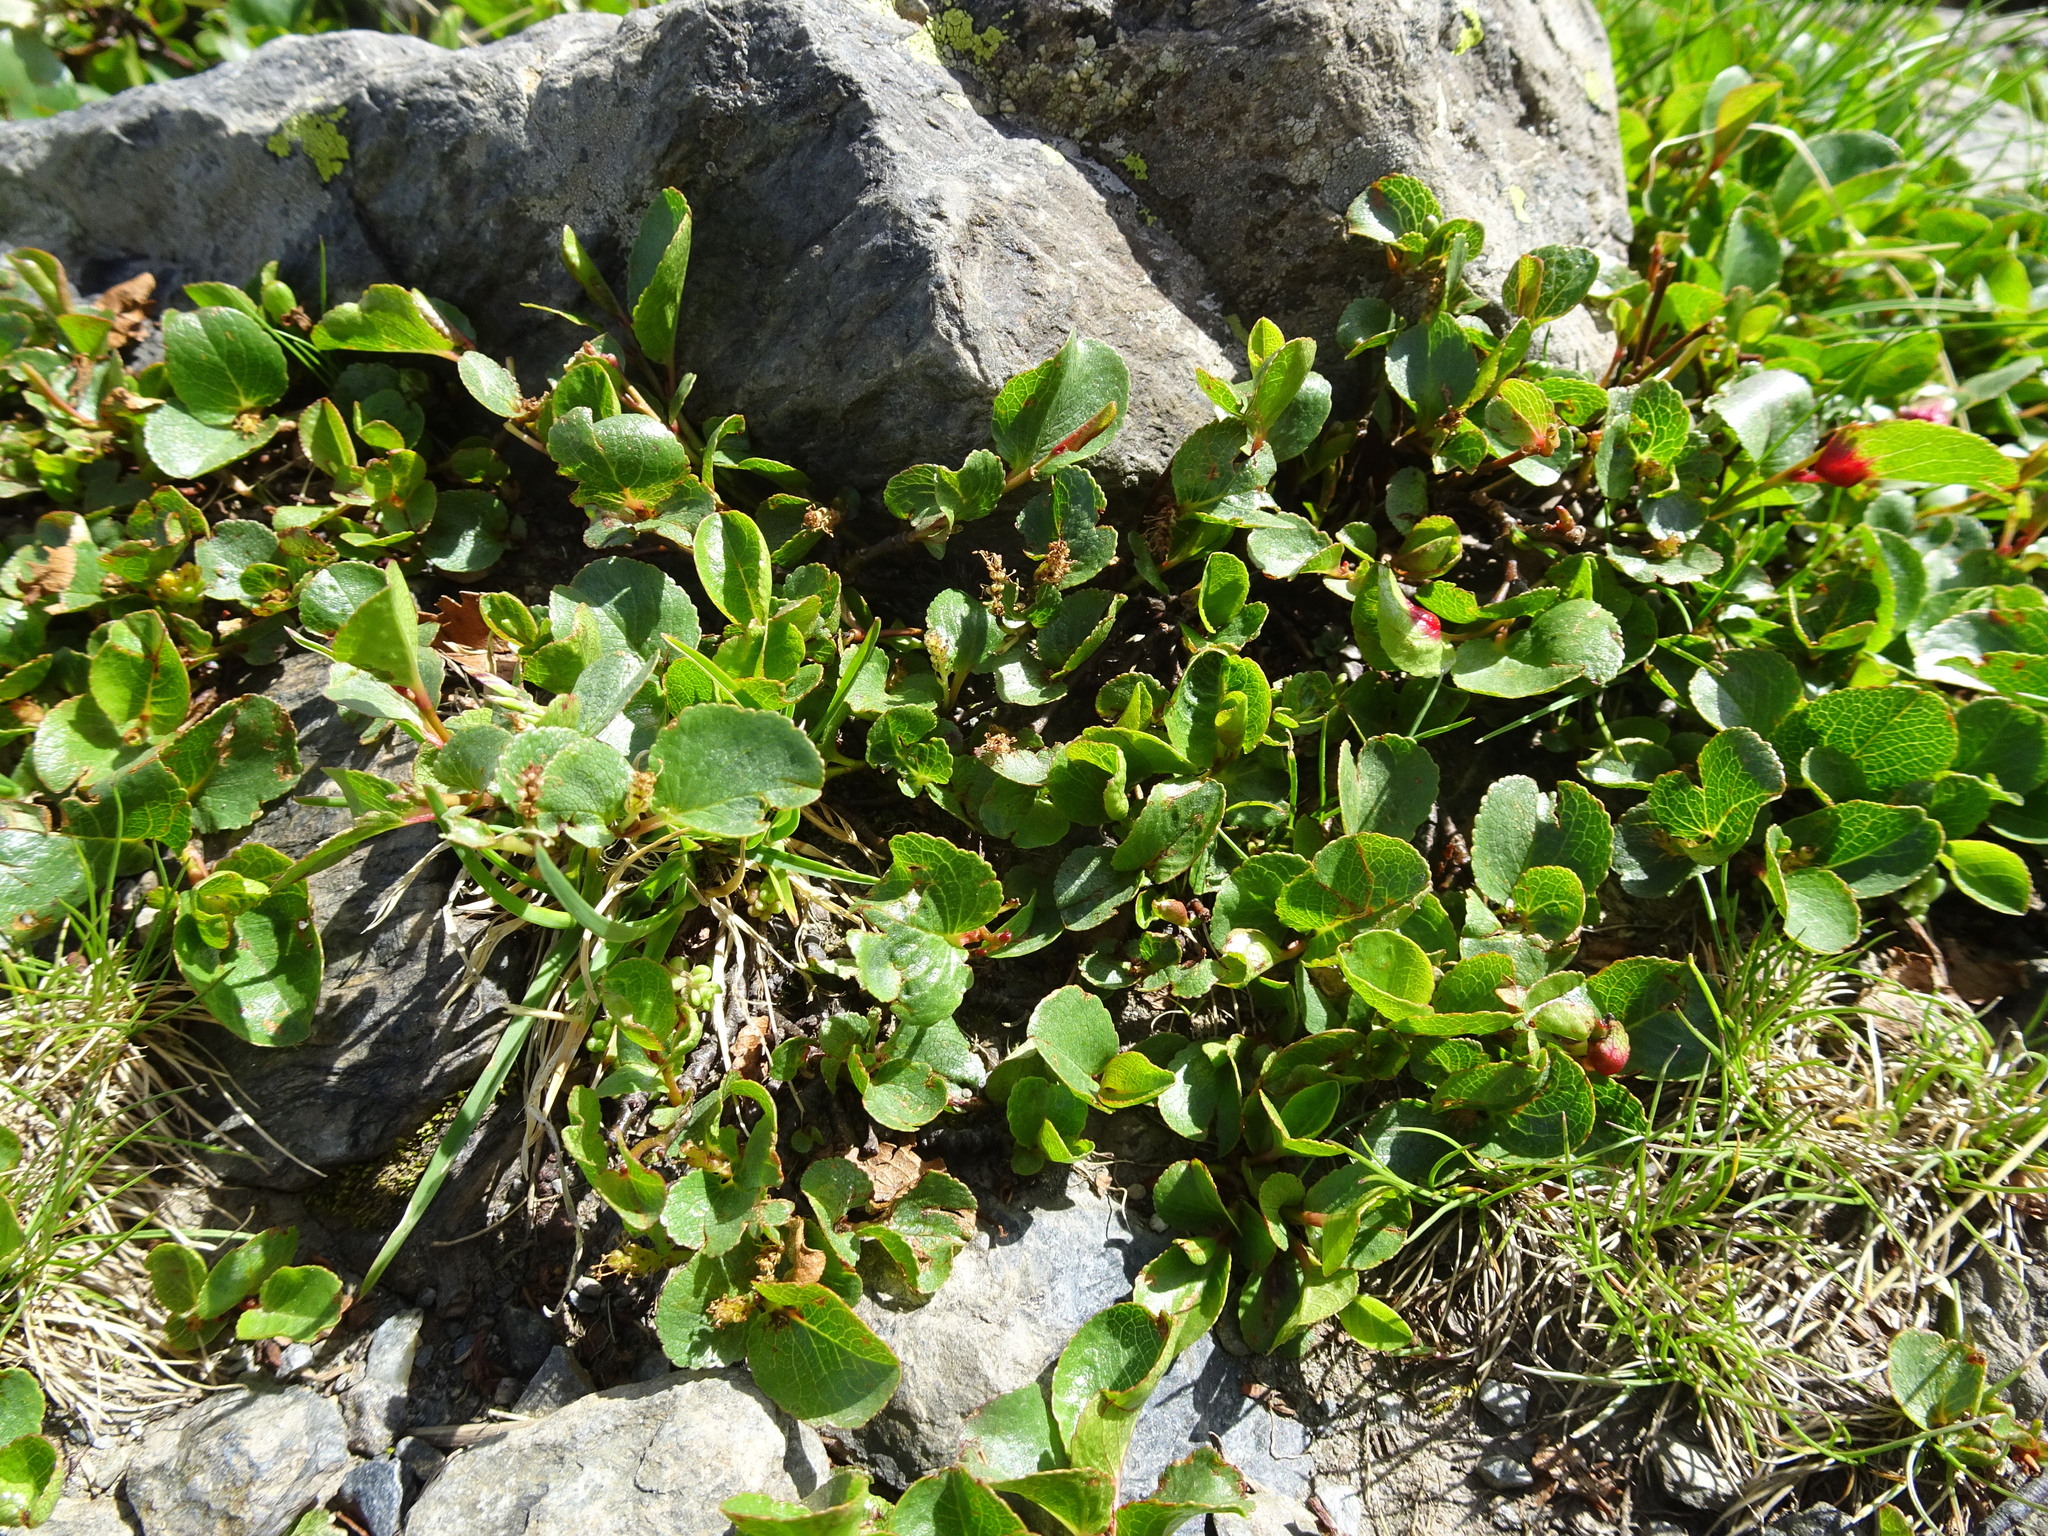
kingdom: Plantae
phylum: Tracheophyta
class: Magnoliopsida
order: Malpighiales
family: Salicaceae
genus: Salix
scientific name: Salix herbacea
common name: Dwarf willow
